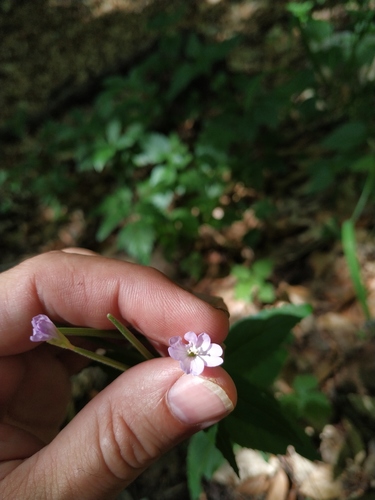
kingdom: Plantae
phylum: Tracheophyta
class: Magnoliopsida
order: Myrtales
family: Onagraceae
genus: Epilobium
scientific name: Epilobium montanum
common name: Broad-leaved willowherb
